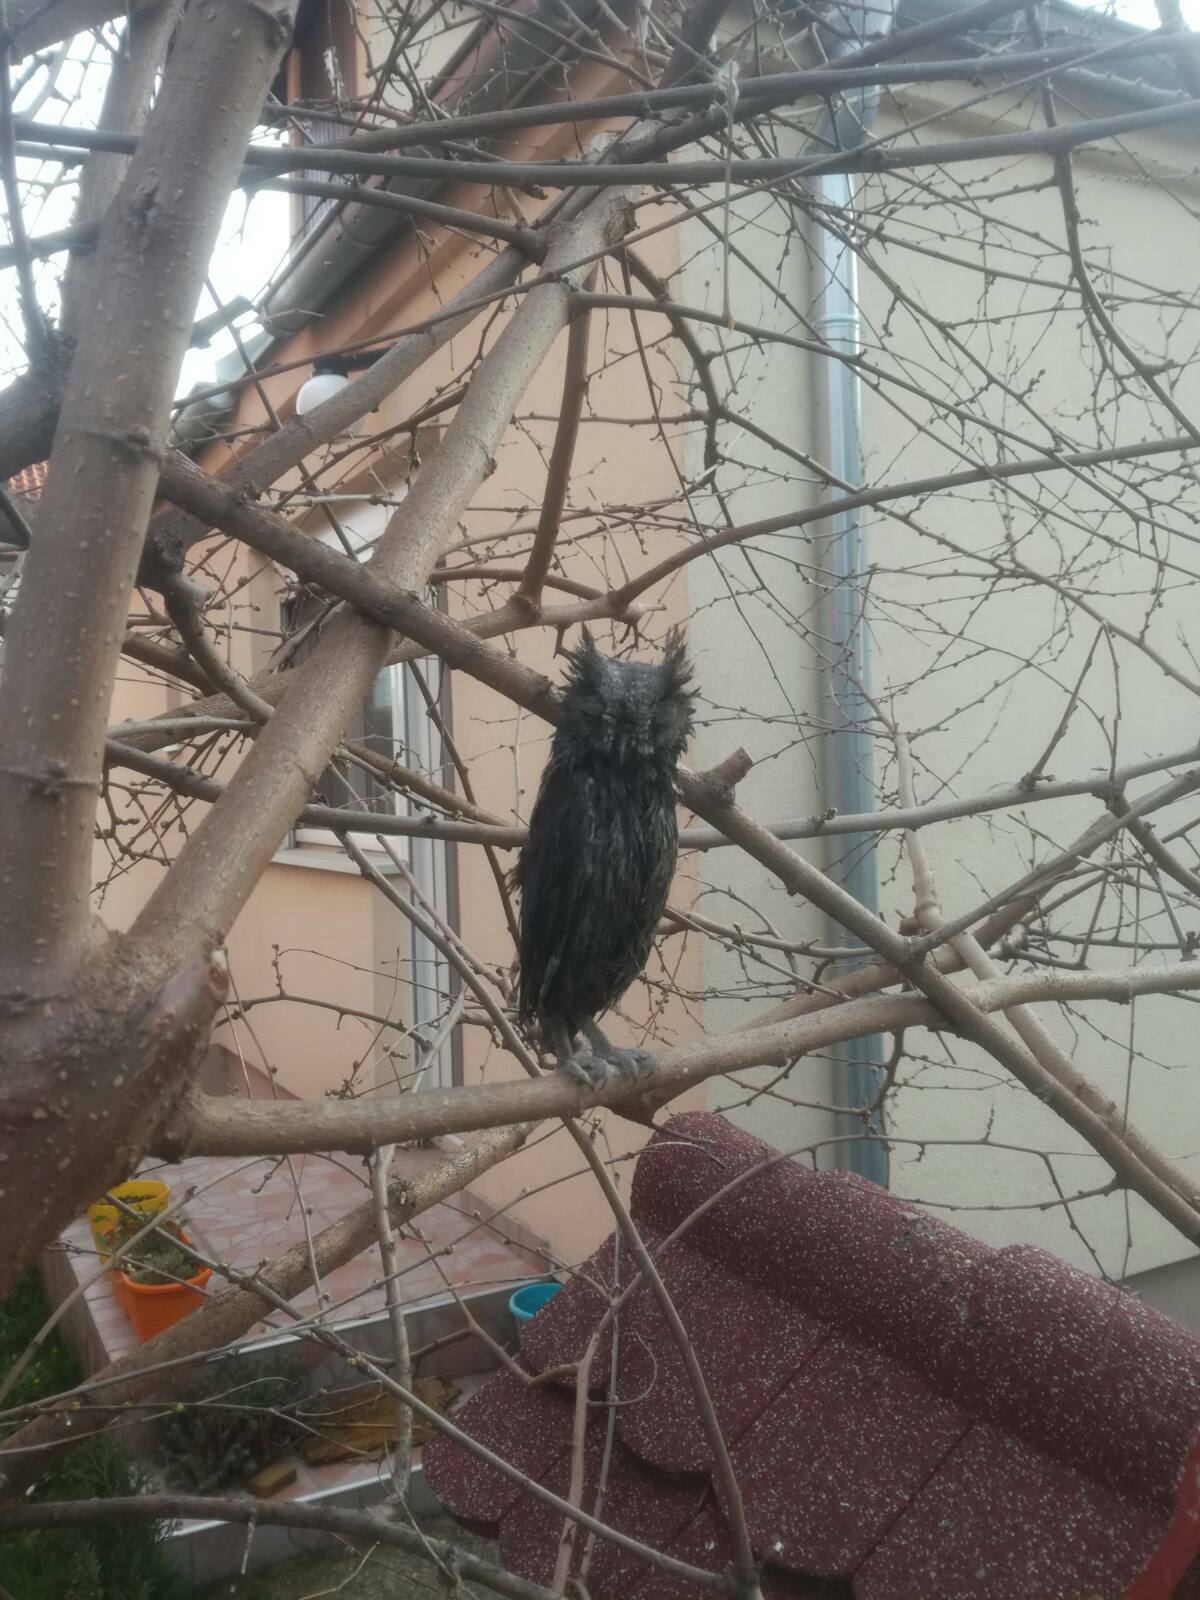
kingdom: Animalia
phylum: Chordata
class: Aves
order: Strigiformes
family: Strigidae
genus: Otus
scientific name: Otus scops
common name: Eurasian scops owl
